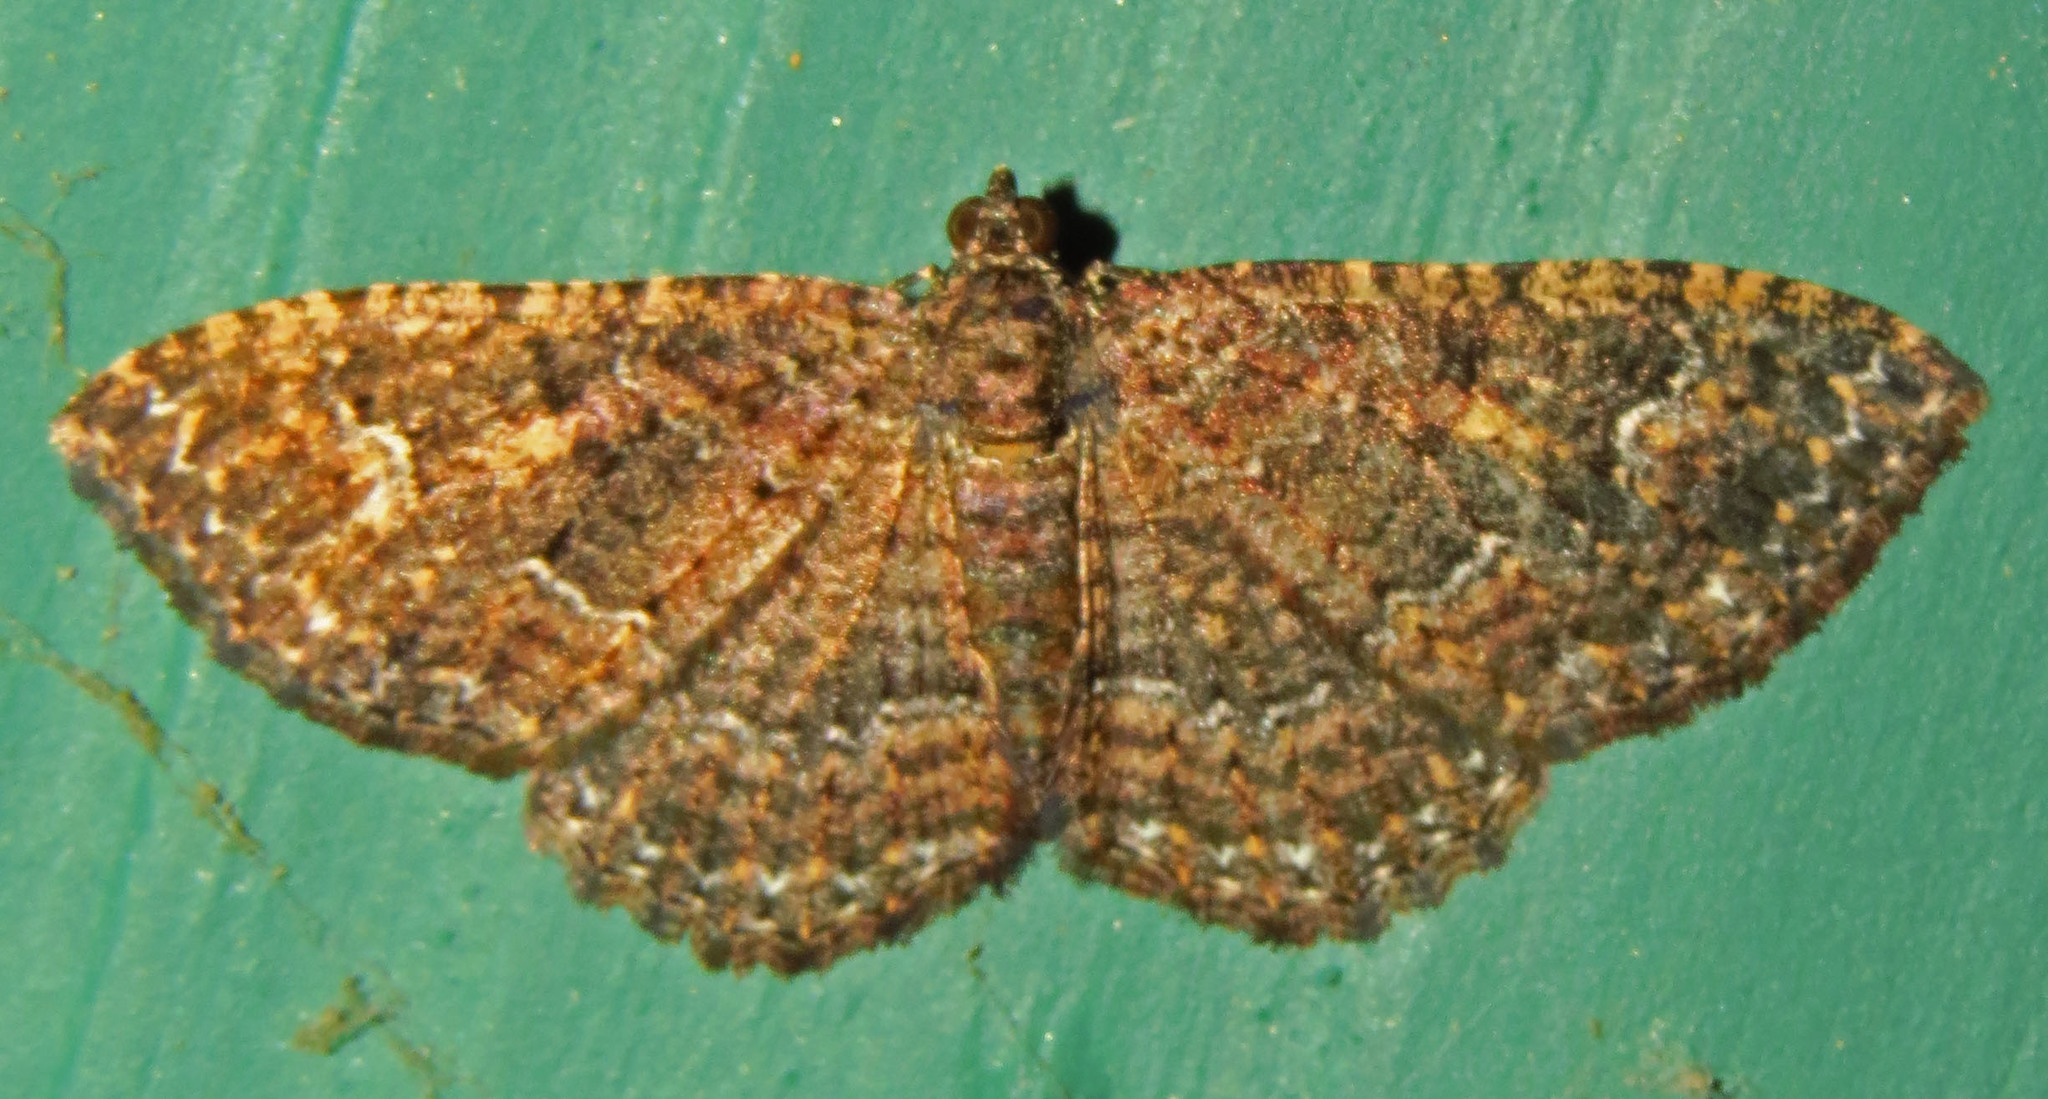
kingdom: Animalia
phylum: Arthropoda
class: Insecta
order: Lepidoptera
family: Geometridae
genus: Disclisioprocta
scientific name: Disclisioprocta stellata
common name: Somber carpet
